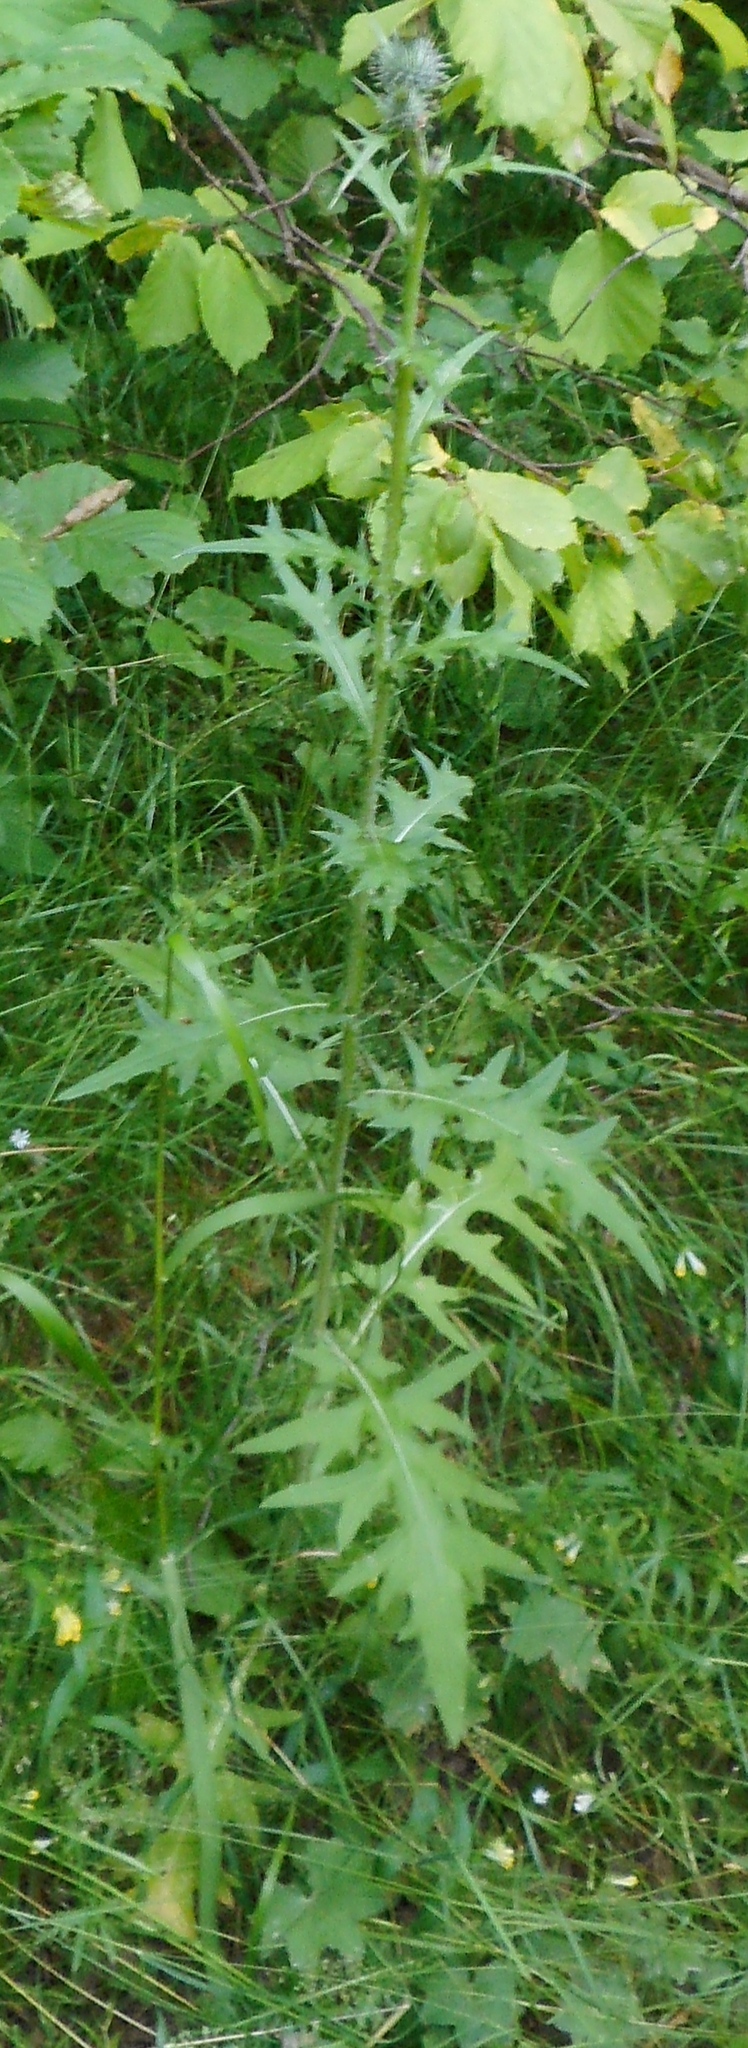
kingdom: Plantae
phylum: Tracheophyta
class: Magnoliopsida
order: Asterales
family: Asteraceae
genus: Cirsium
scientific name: Cirsium vulgare
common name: Bull thistle
